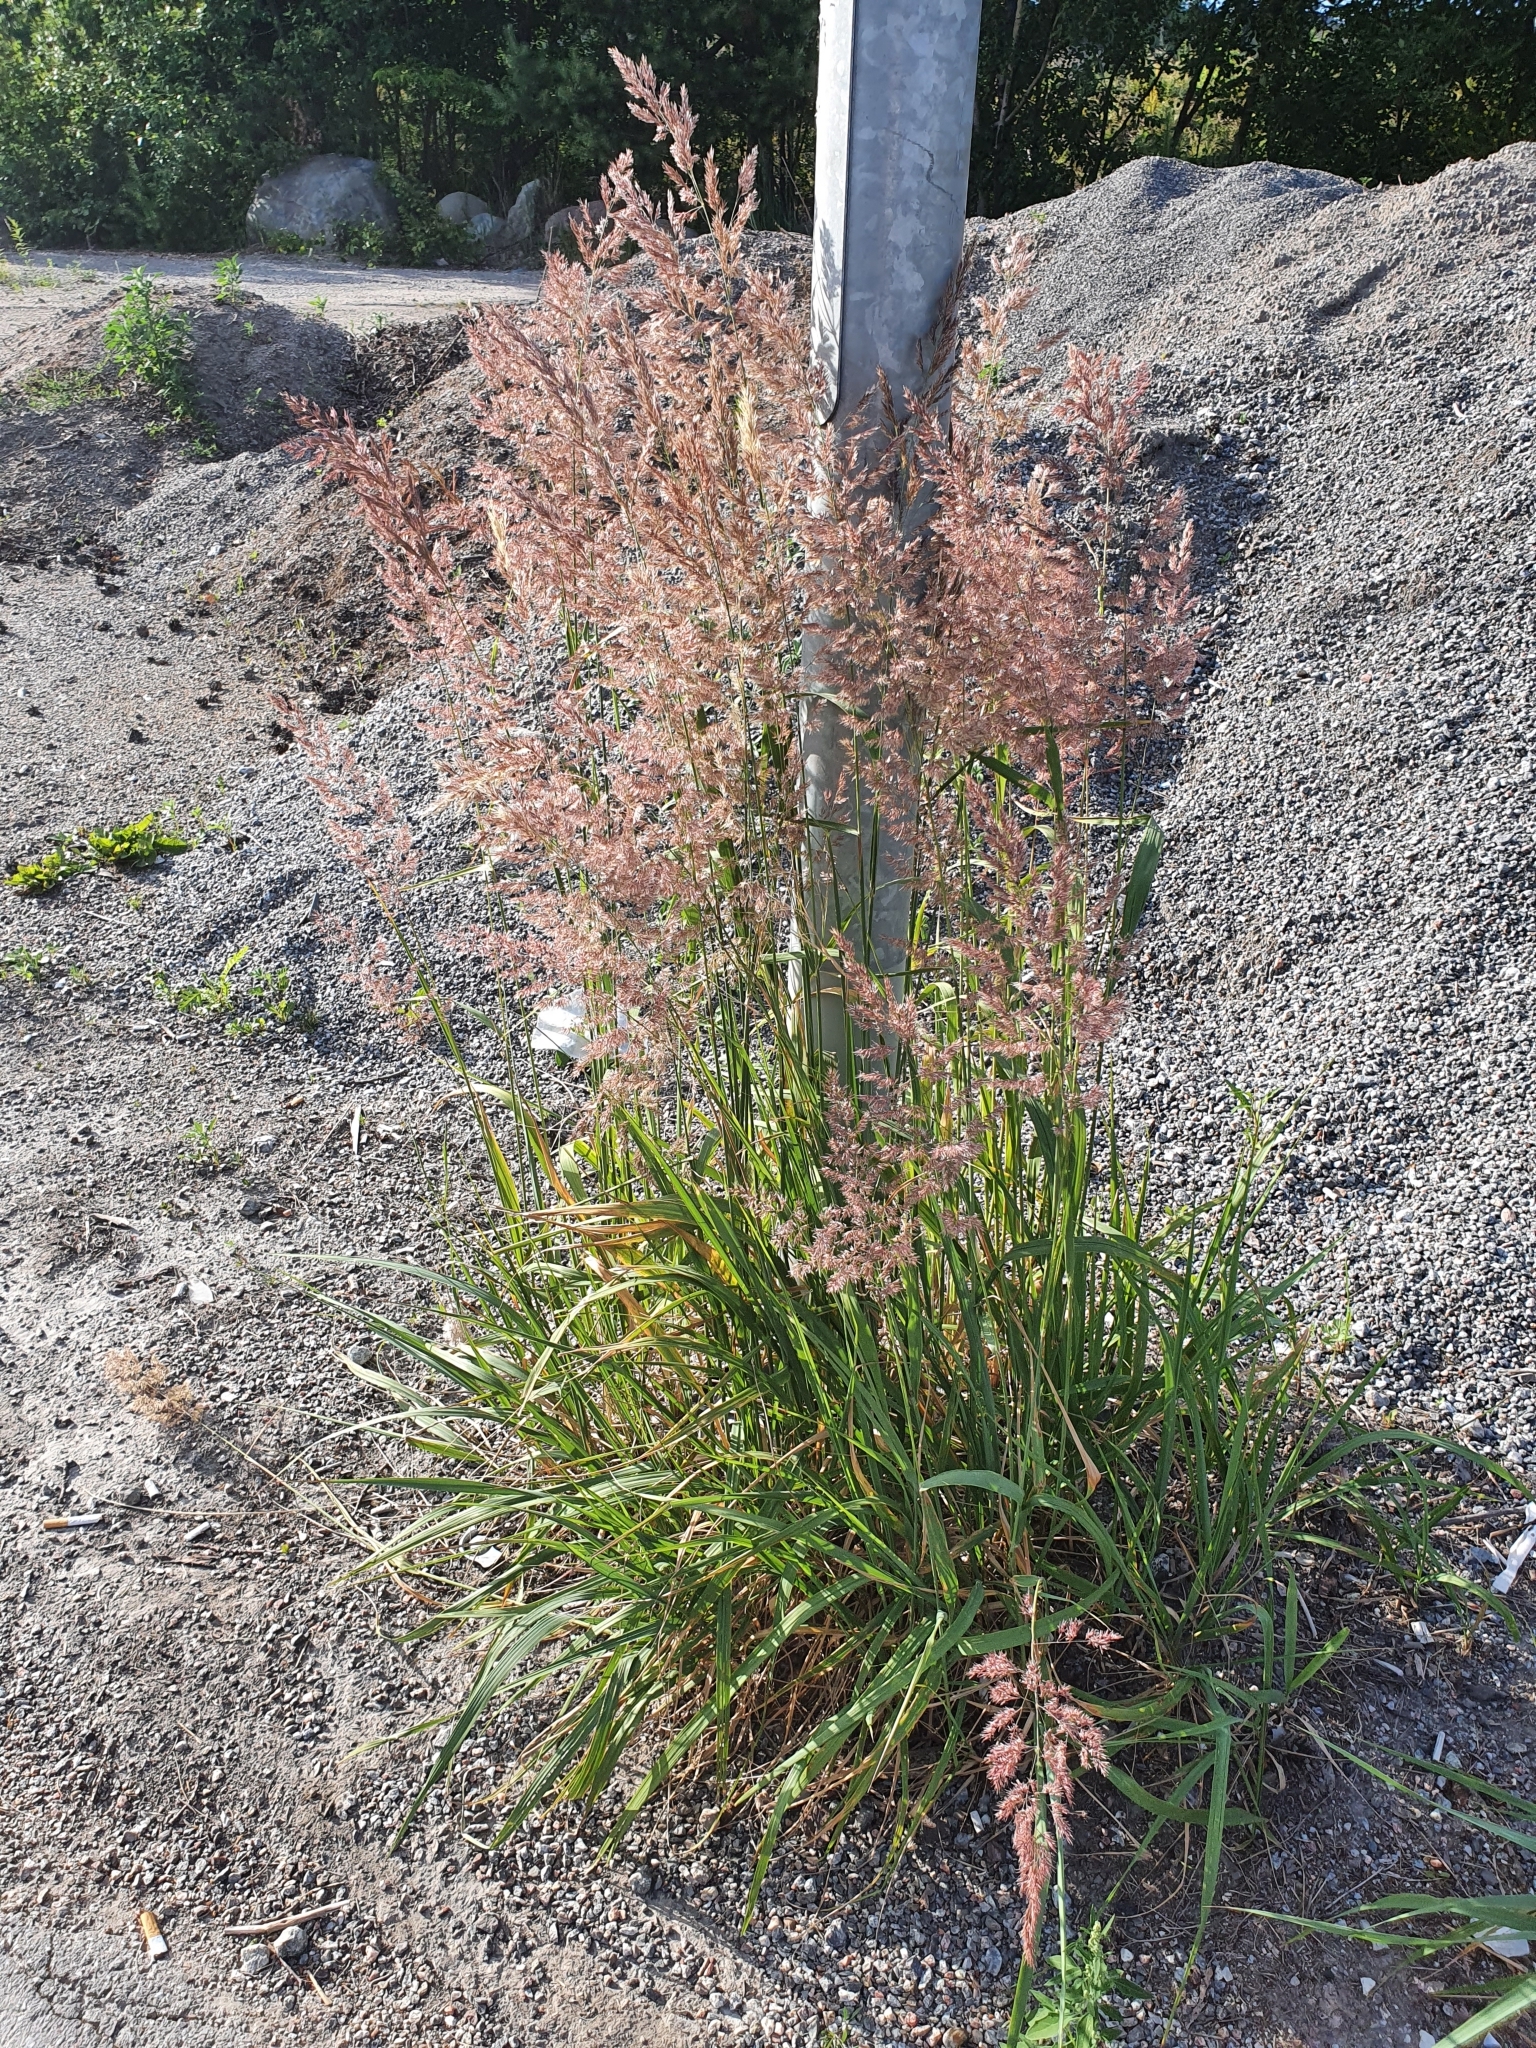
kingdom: Plantae
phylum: Tracheophyta
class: Liliopsida
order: Poales
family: Poaceae
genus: Calamagrostis
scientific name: Calamagrostis epigejos
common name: Wood small-reed
